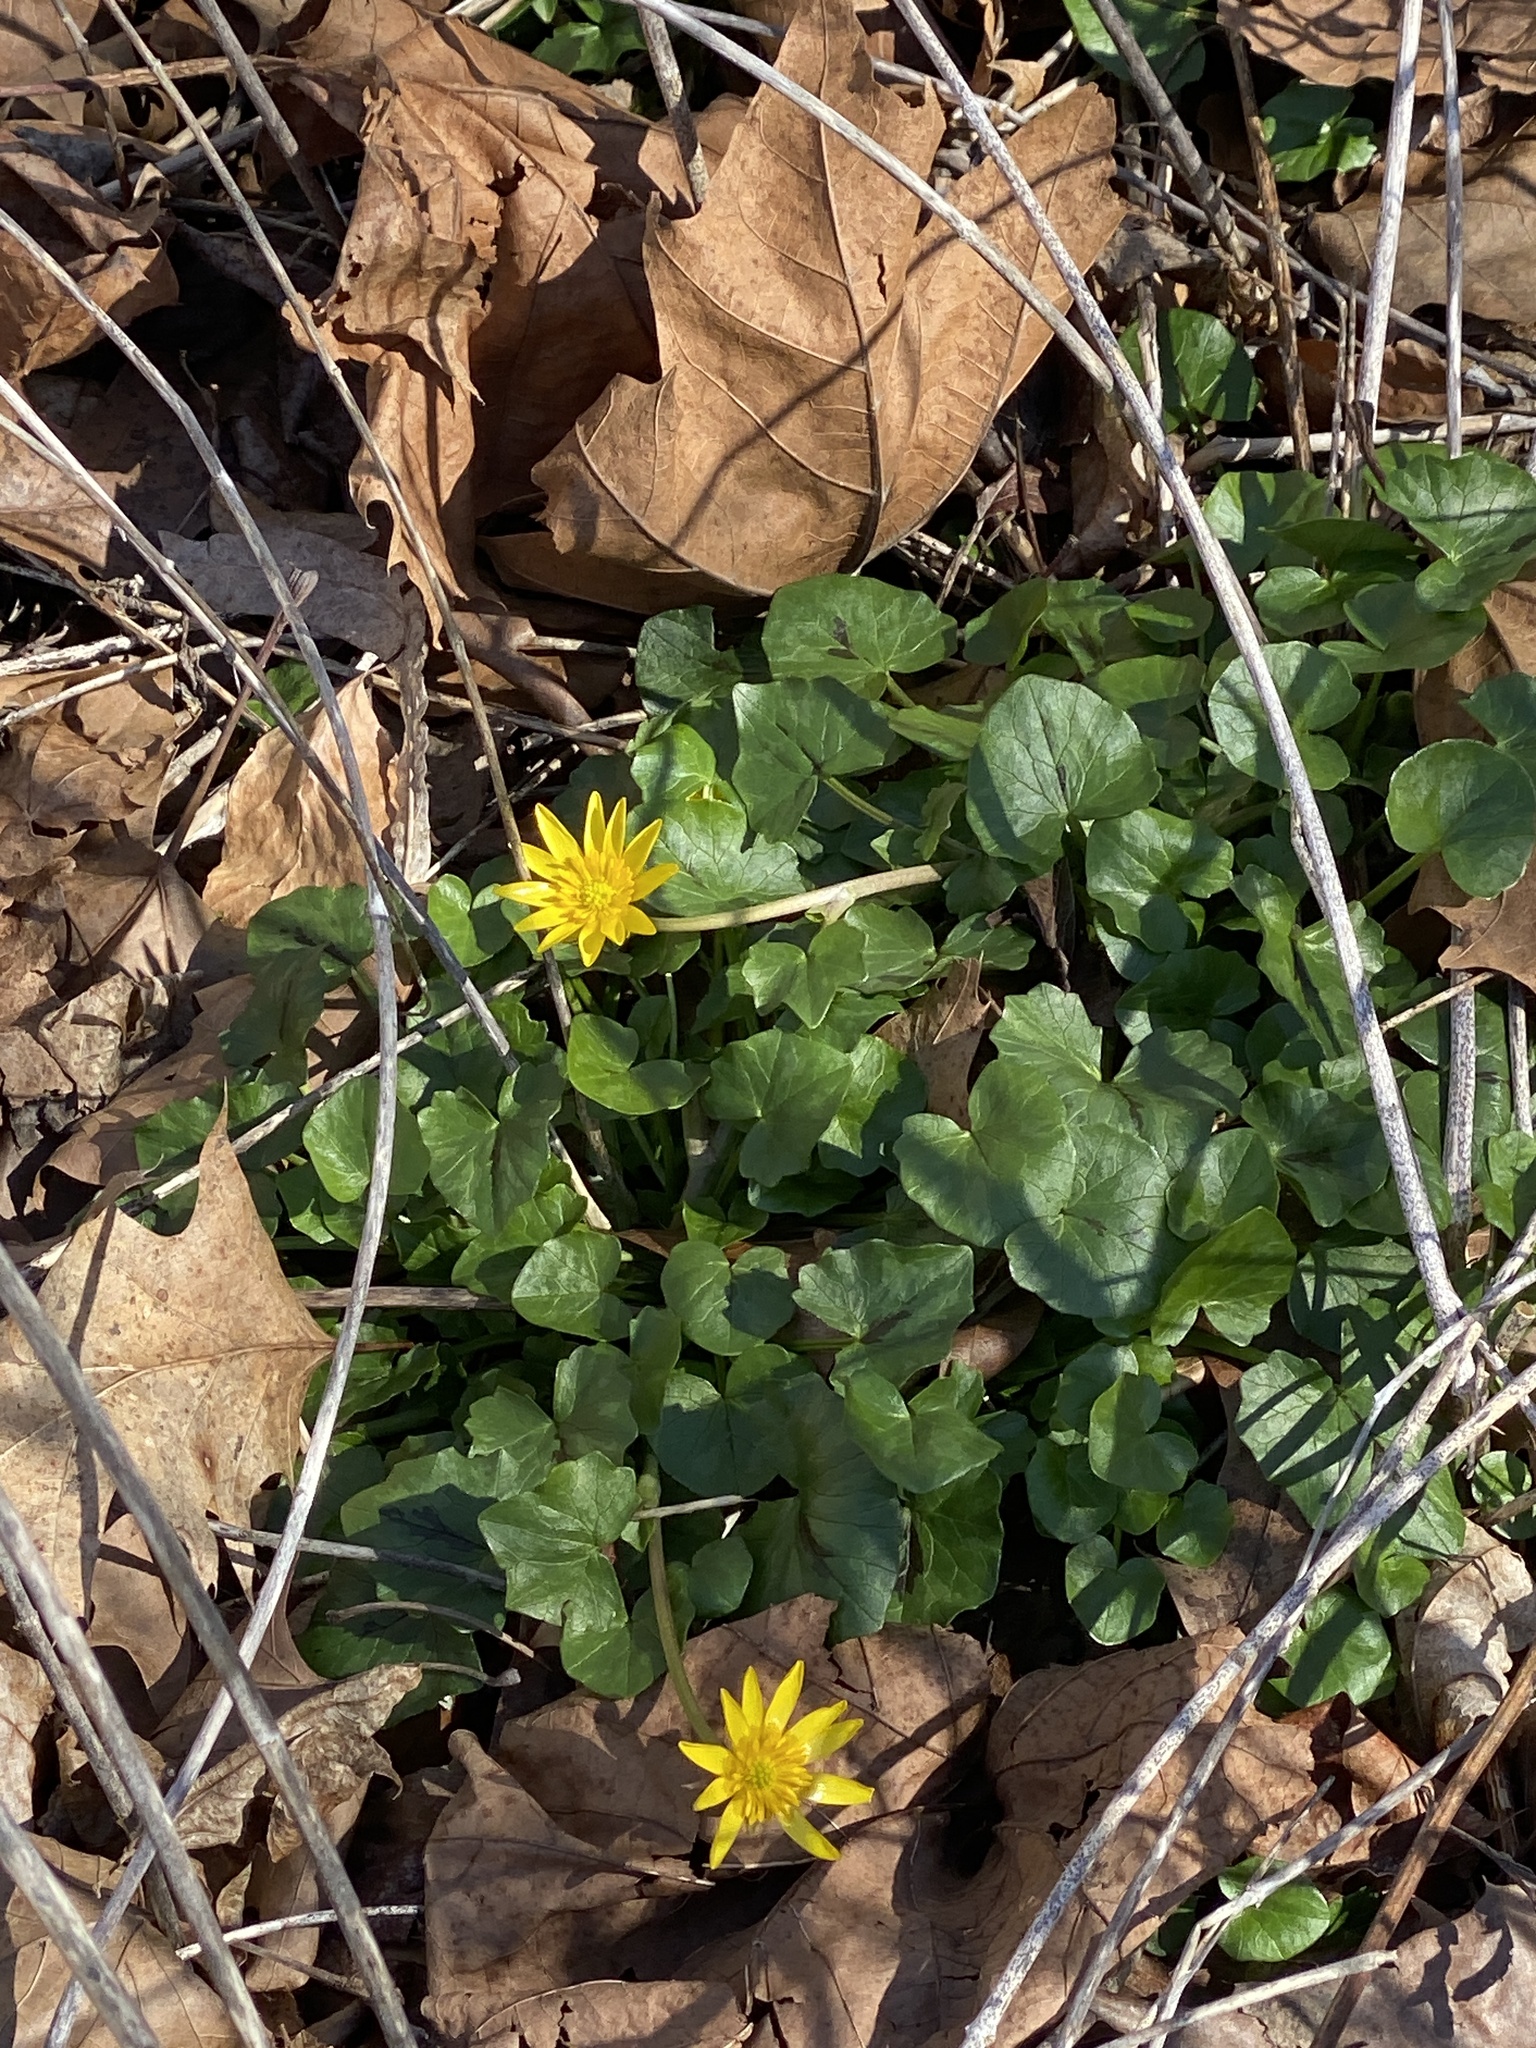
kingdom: Plantae
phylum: Tracheophyta
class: Magnoliopsida
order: Ranunculales
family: Ranunculaceae
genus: Ficaria
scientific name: Ficaria verna
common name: Lesser celandine
